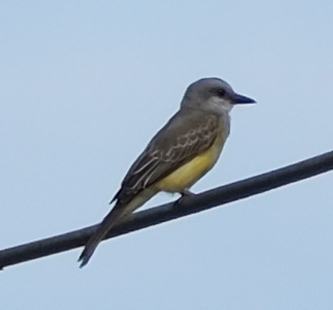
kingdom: Animalia
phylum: Chordata
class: Aves
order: Passeriformes
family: Tyrannidae
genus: Tyrannus
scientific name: Tyrannus melancholicus
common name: Tropical kingbird
